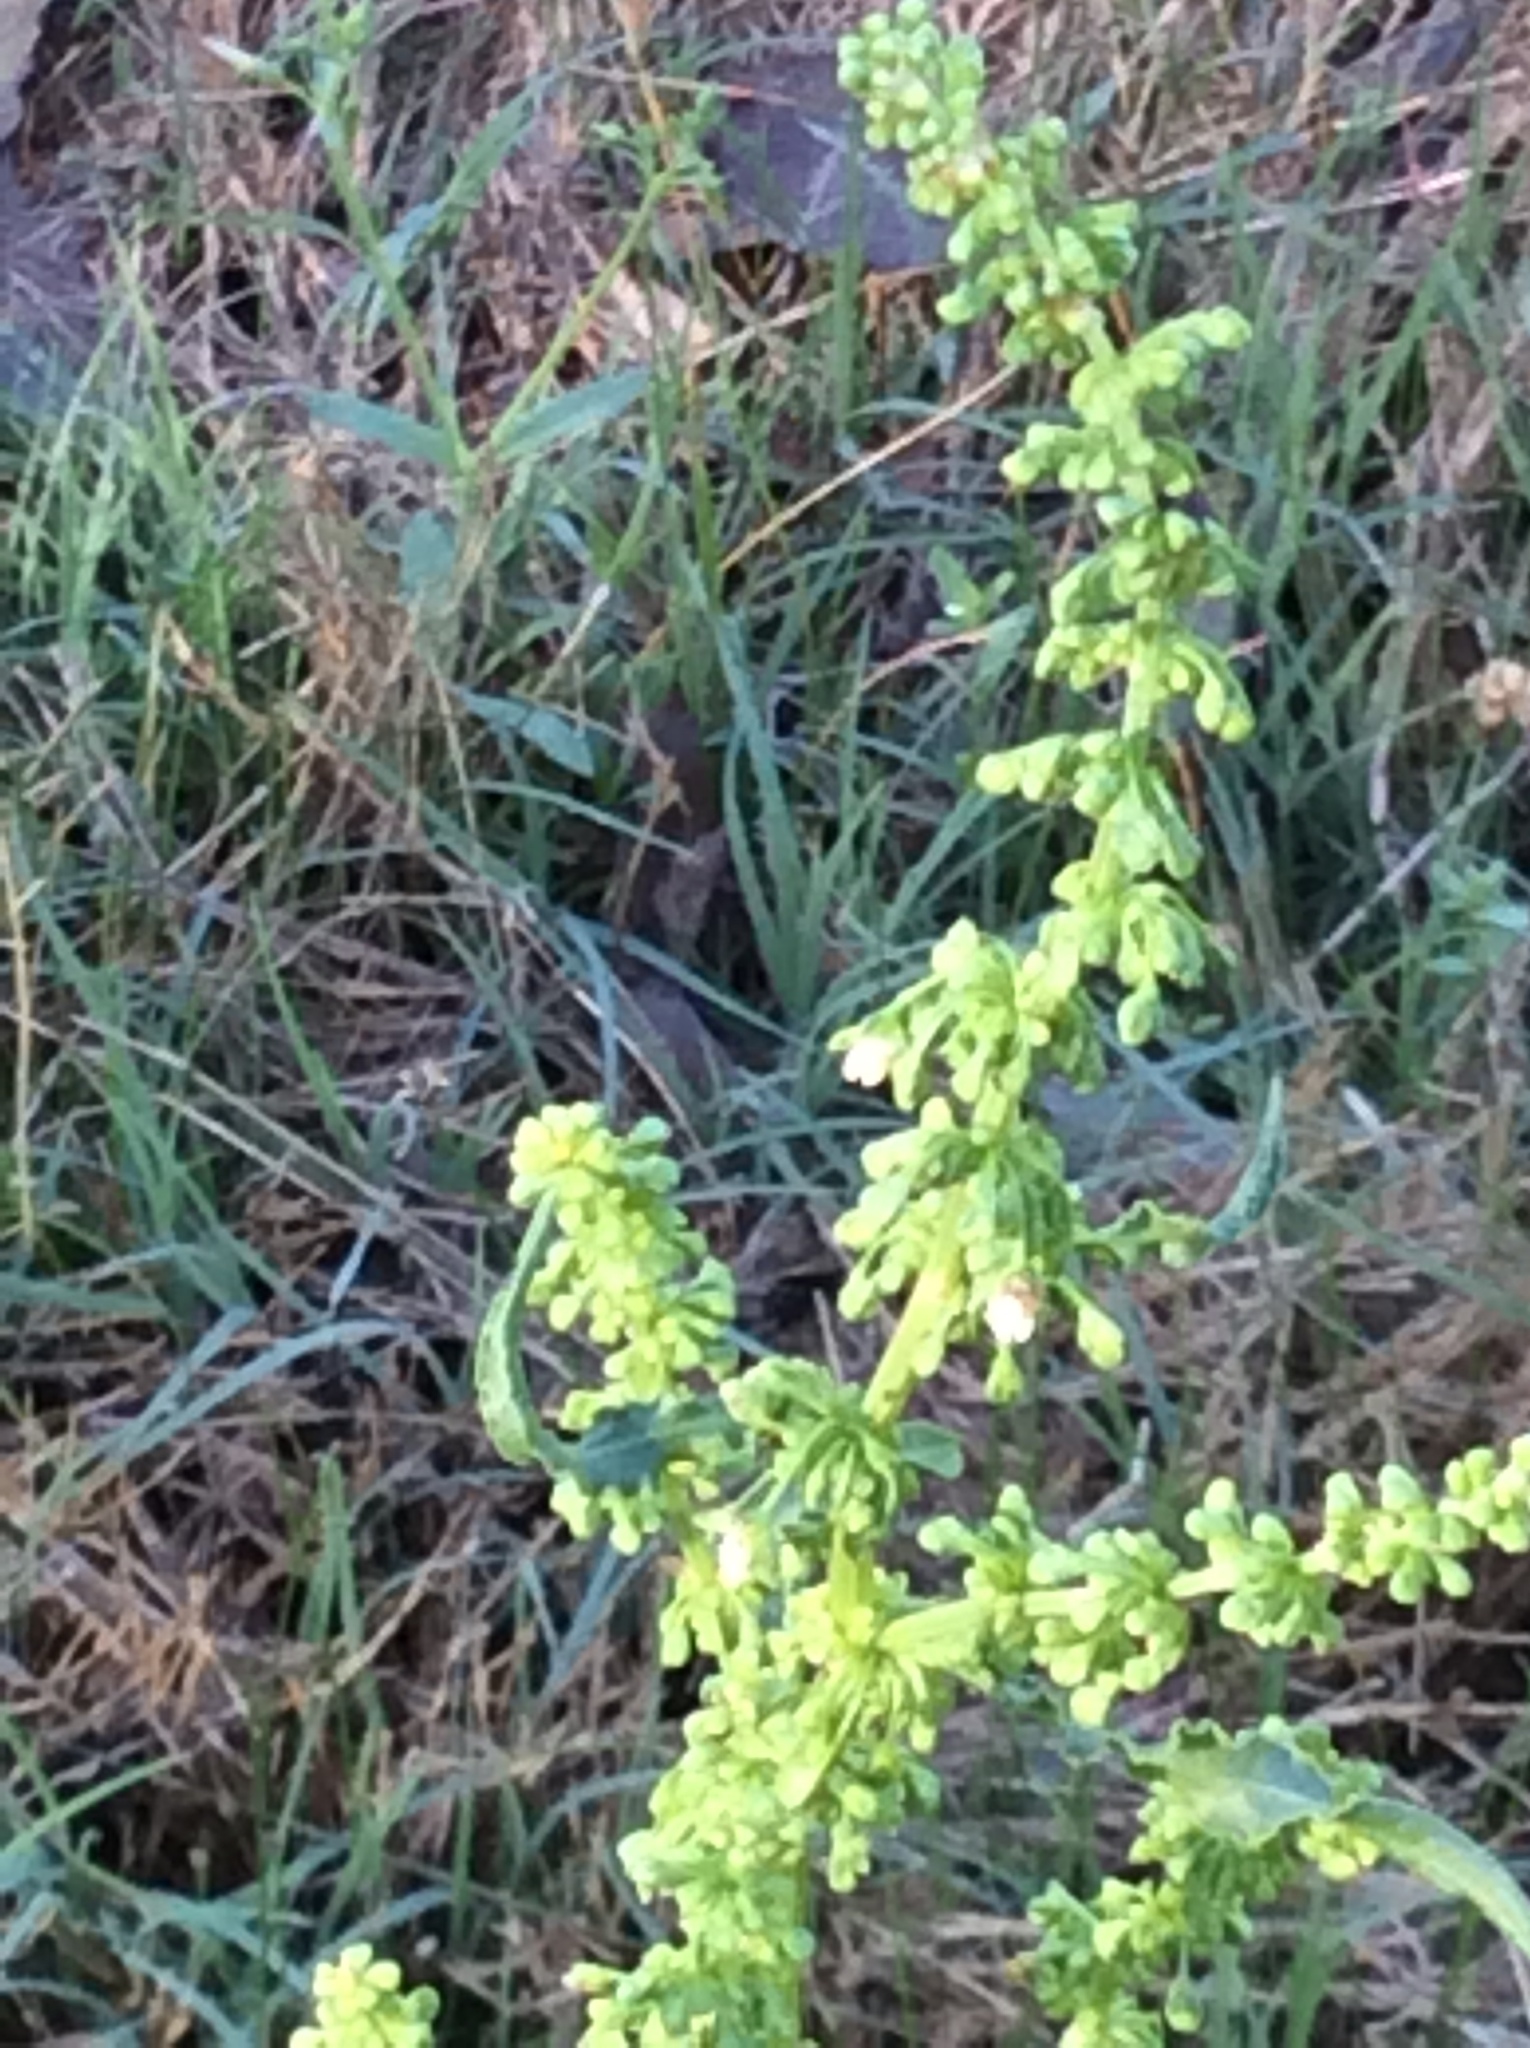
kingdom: Plantae
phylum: Tracheophyta
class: Magnoliopsida
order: Caryophyllales
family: Polygonaceae
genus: Rumex
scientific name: Rumex crispus
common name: Curled dock
